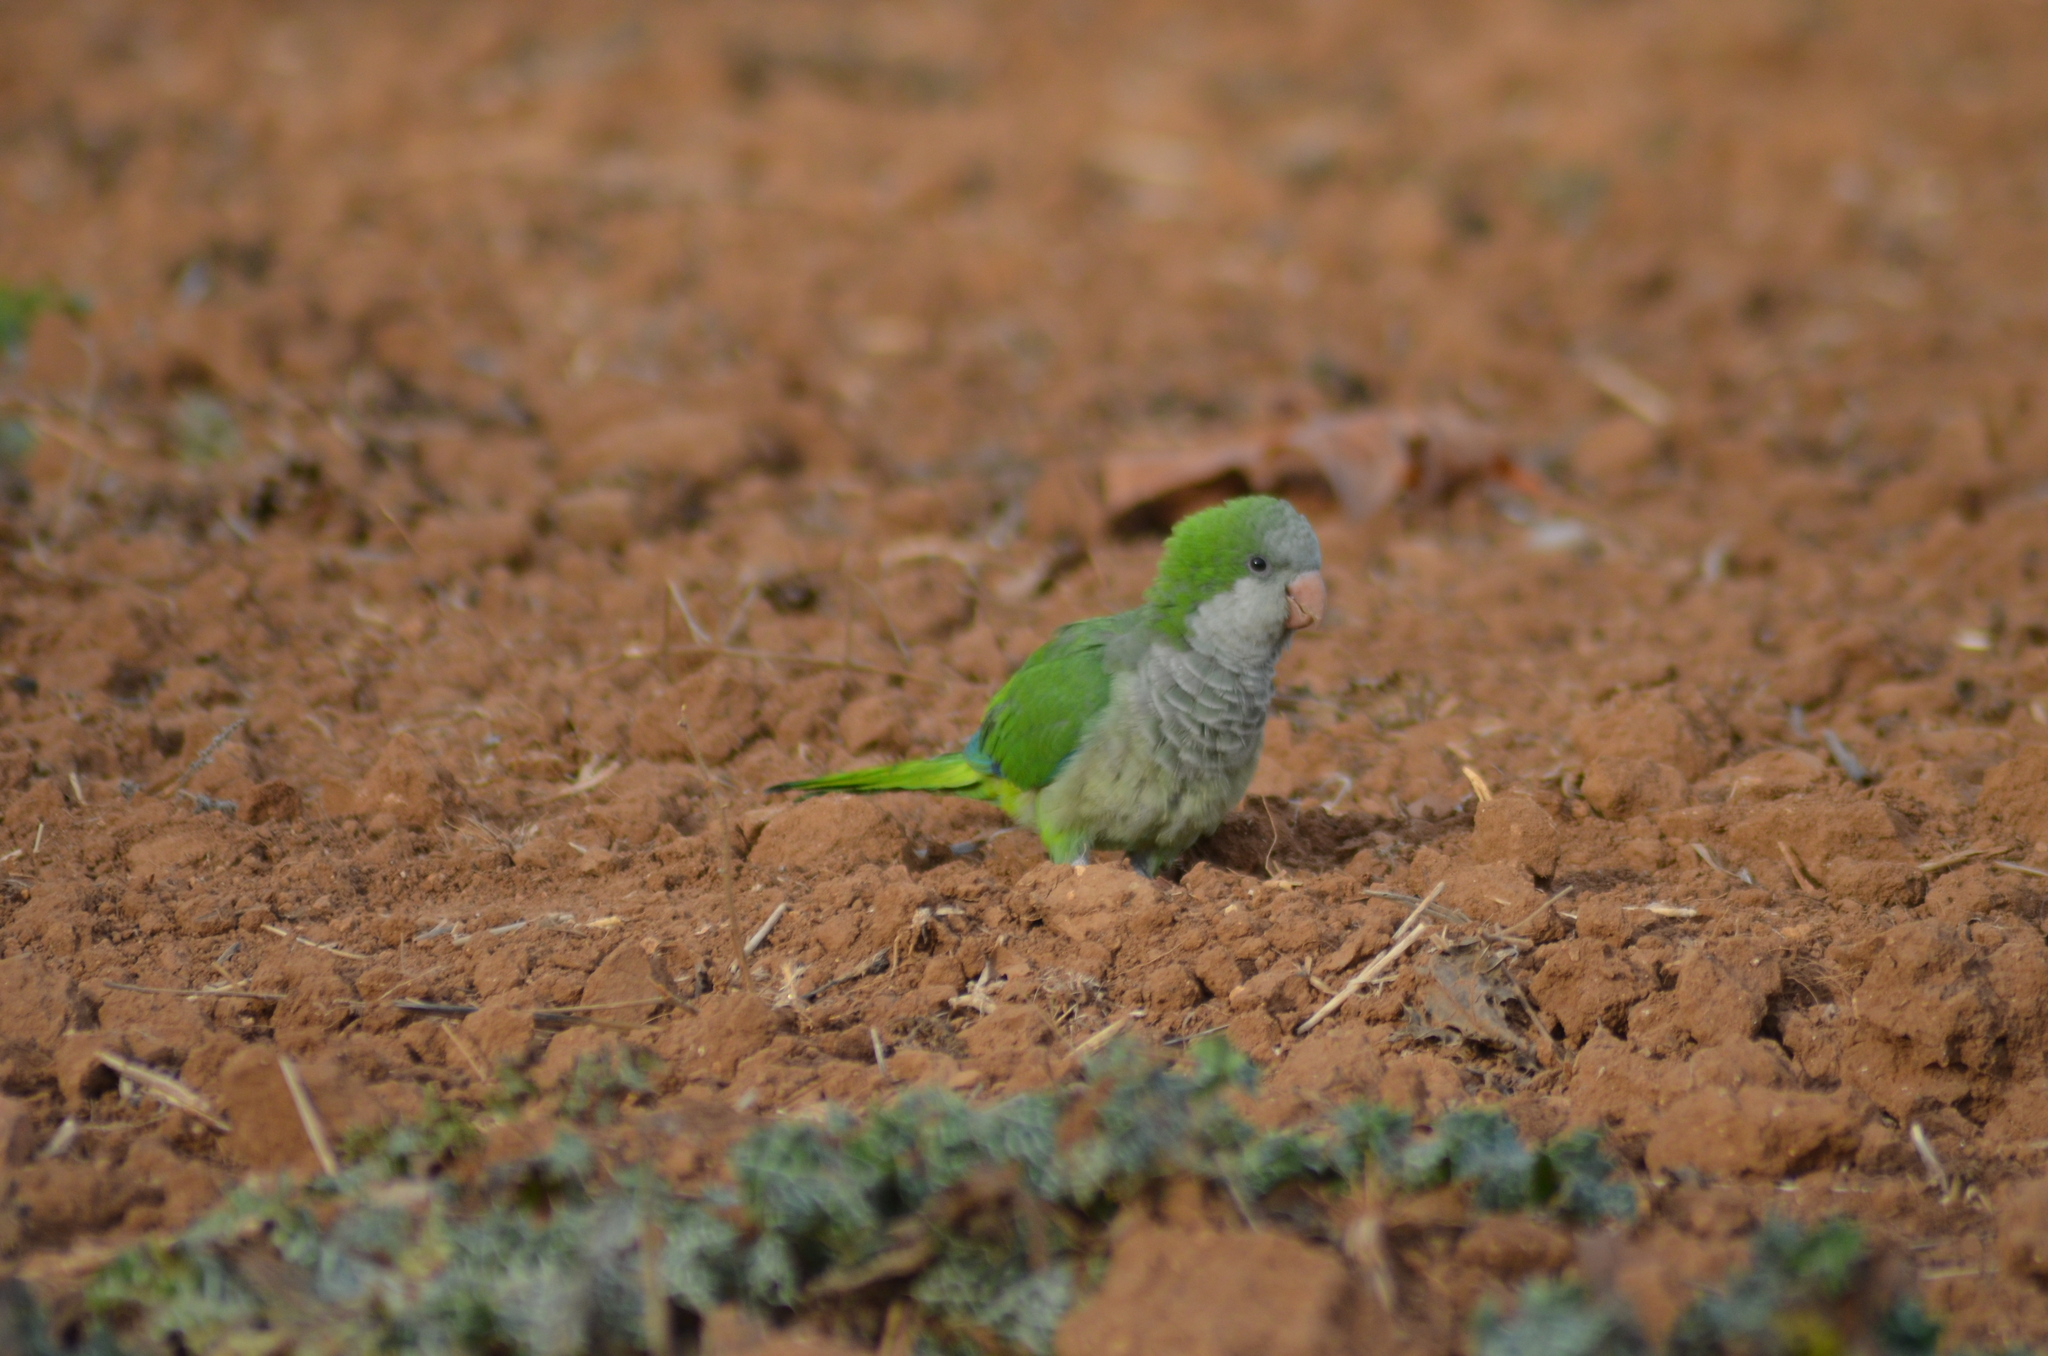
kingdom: Animalia
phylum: Chordata
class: Aves
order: Psittaciformes
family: Psittacidae
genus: Myiopsitta
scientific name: Myiopsitta monachus
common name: Monk parakeet
